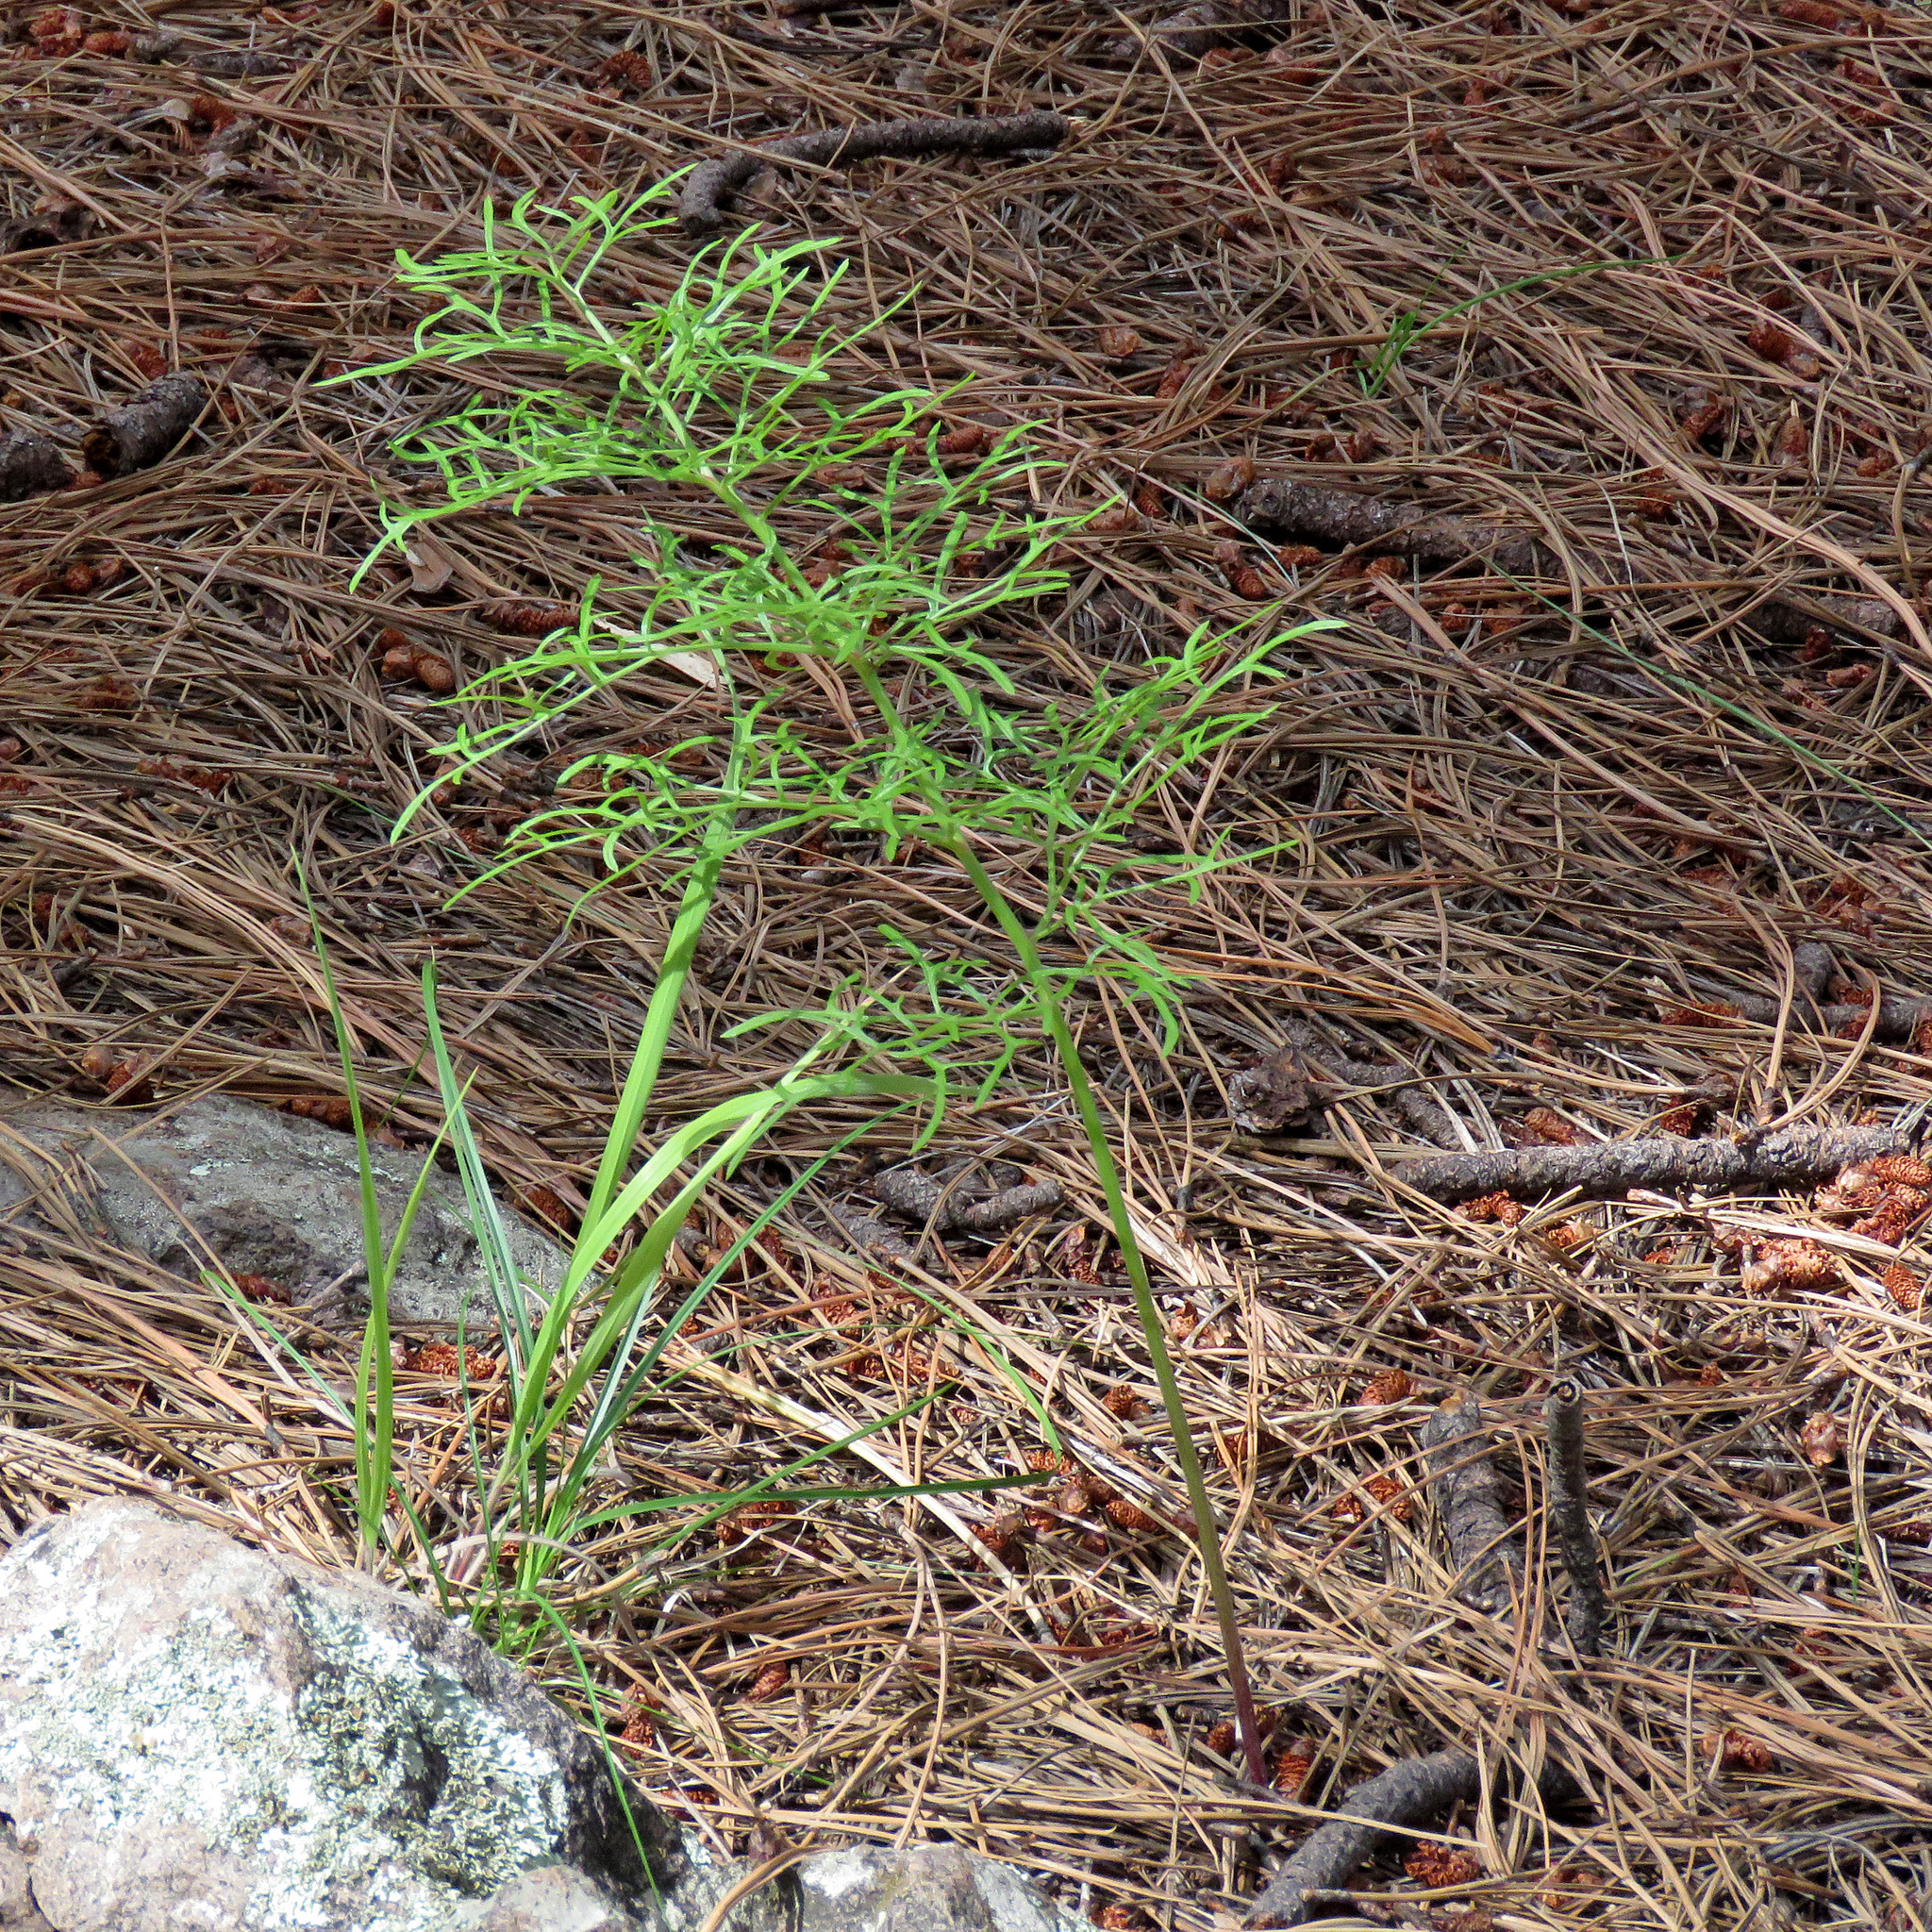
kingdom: Plantae
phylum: Tracheophyta
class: Magnoliopsida
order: Asterales
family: Asteraceae
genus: Psacalium
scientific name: Psacalium decompositum
